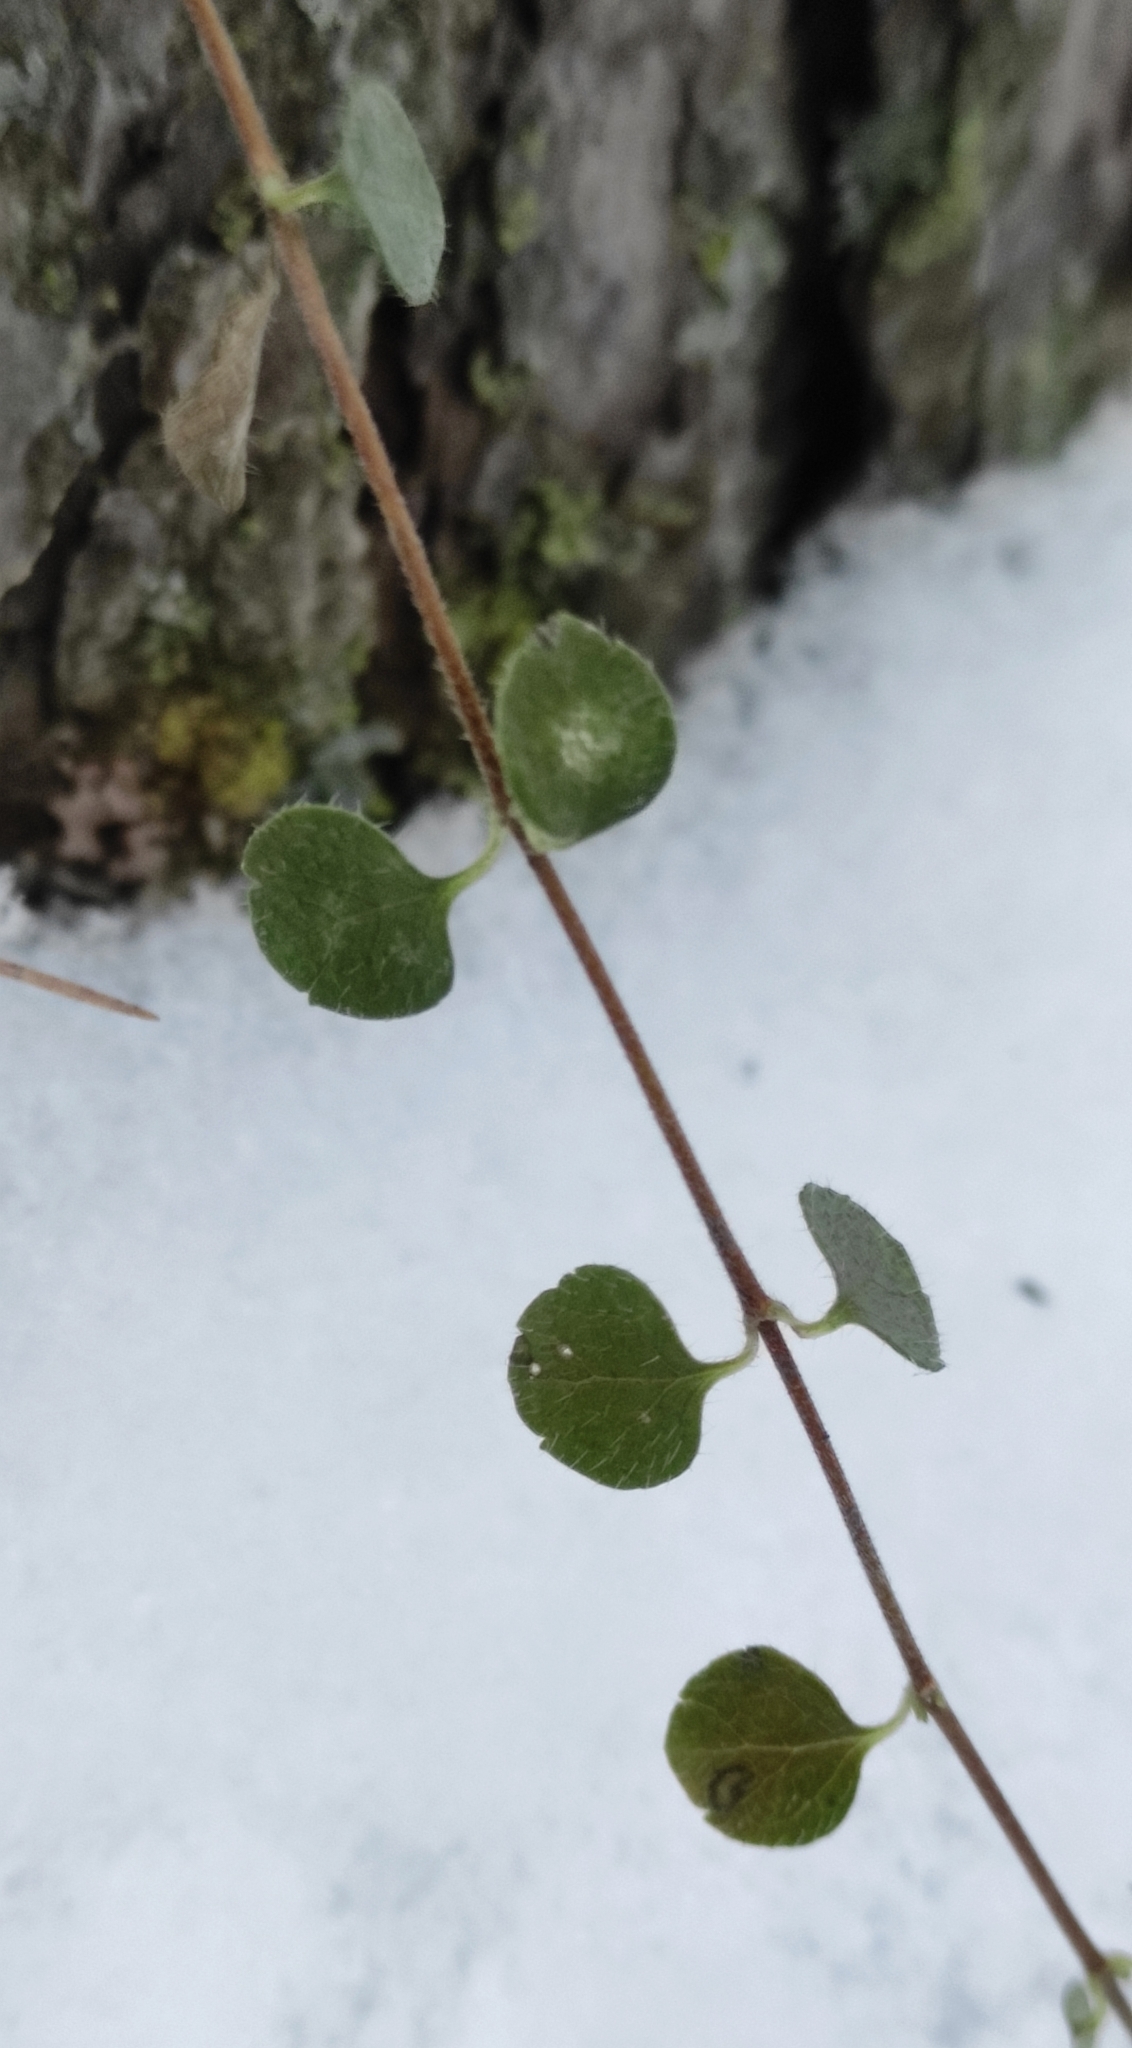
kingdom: Plantae
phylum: Tracheophyta
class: Magnoliopsida
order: Dipsacales
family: Caprifoliaceae
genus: Linnaea
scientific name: Linnaea borealis
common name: Twinflower
